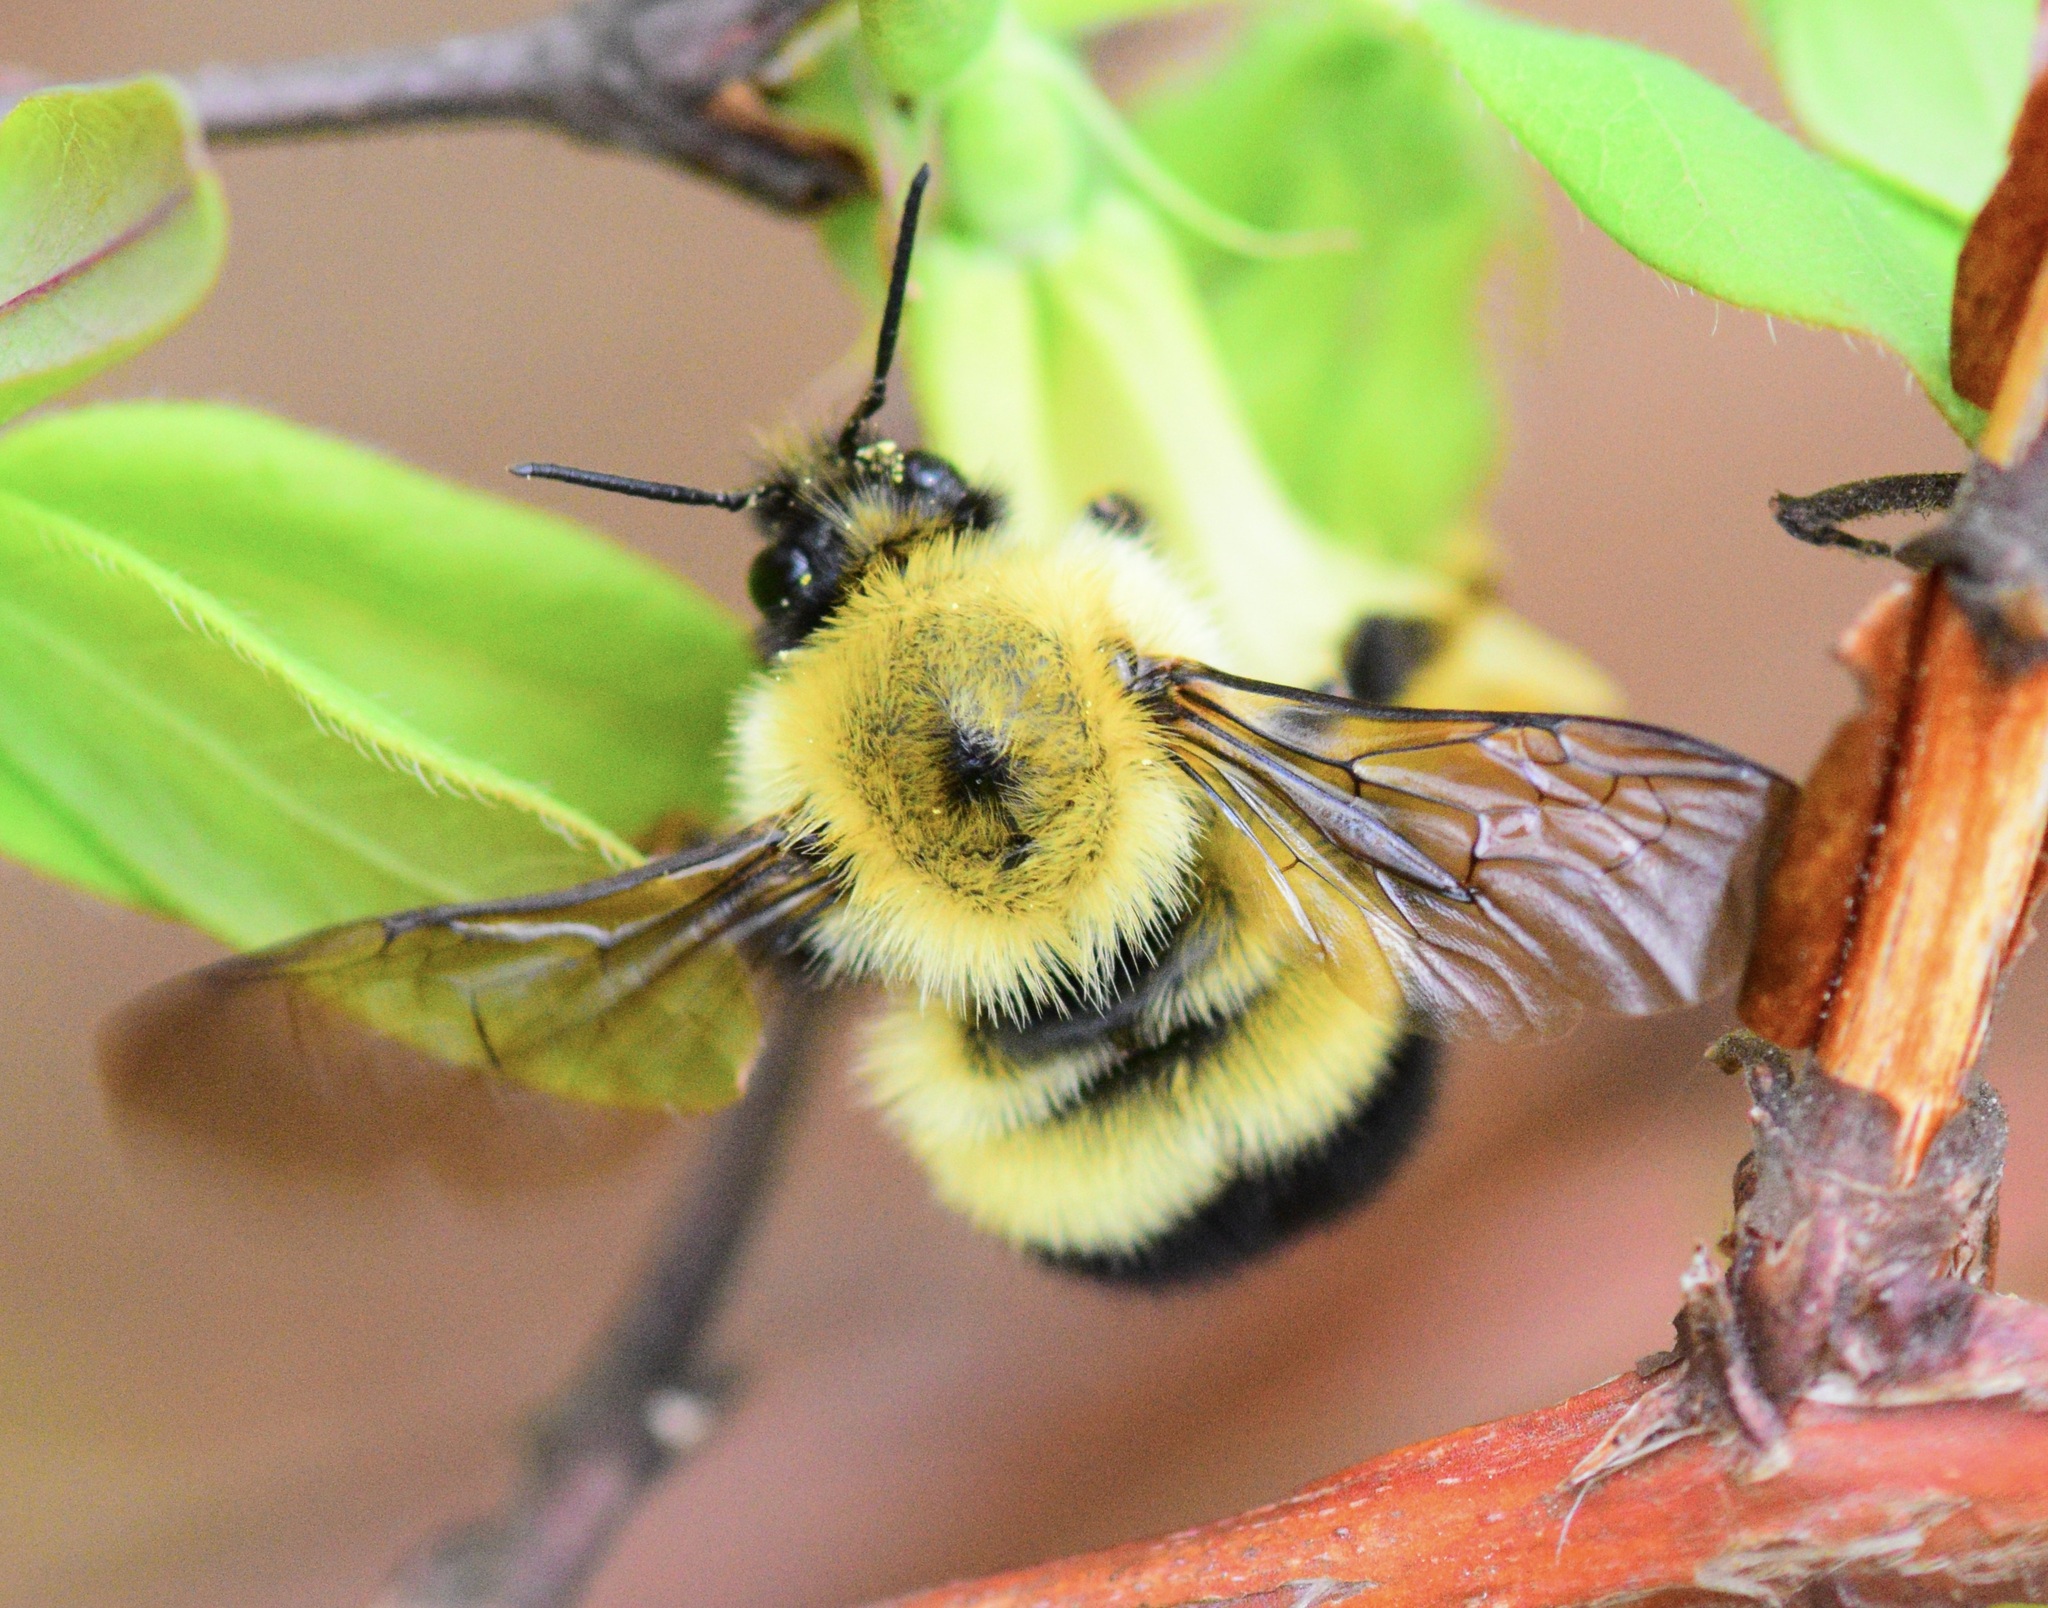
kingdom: Animalia
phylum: Arthropoda
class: Insecta
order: Hymenoptera
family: Apidae
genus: Bombus
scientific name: Bombus perplexus
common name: Confusing bumble bee
